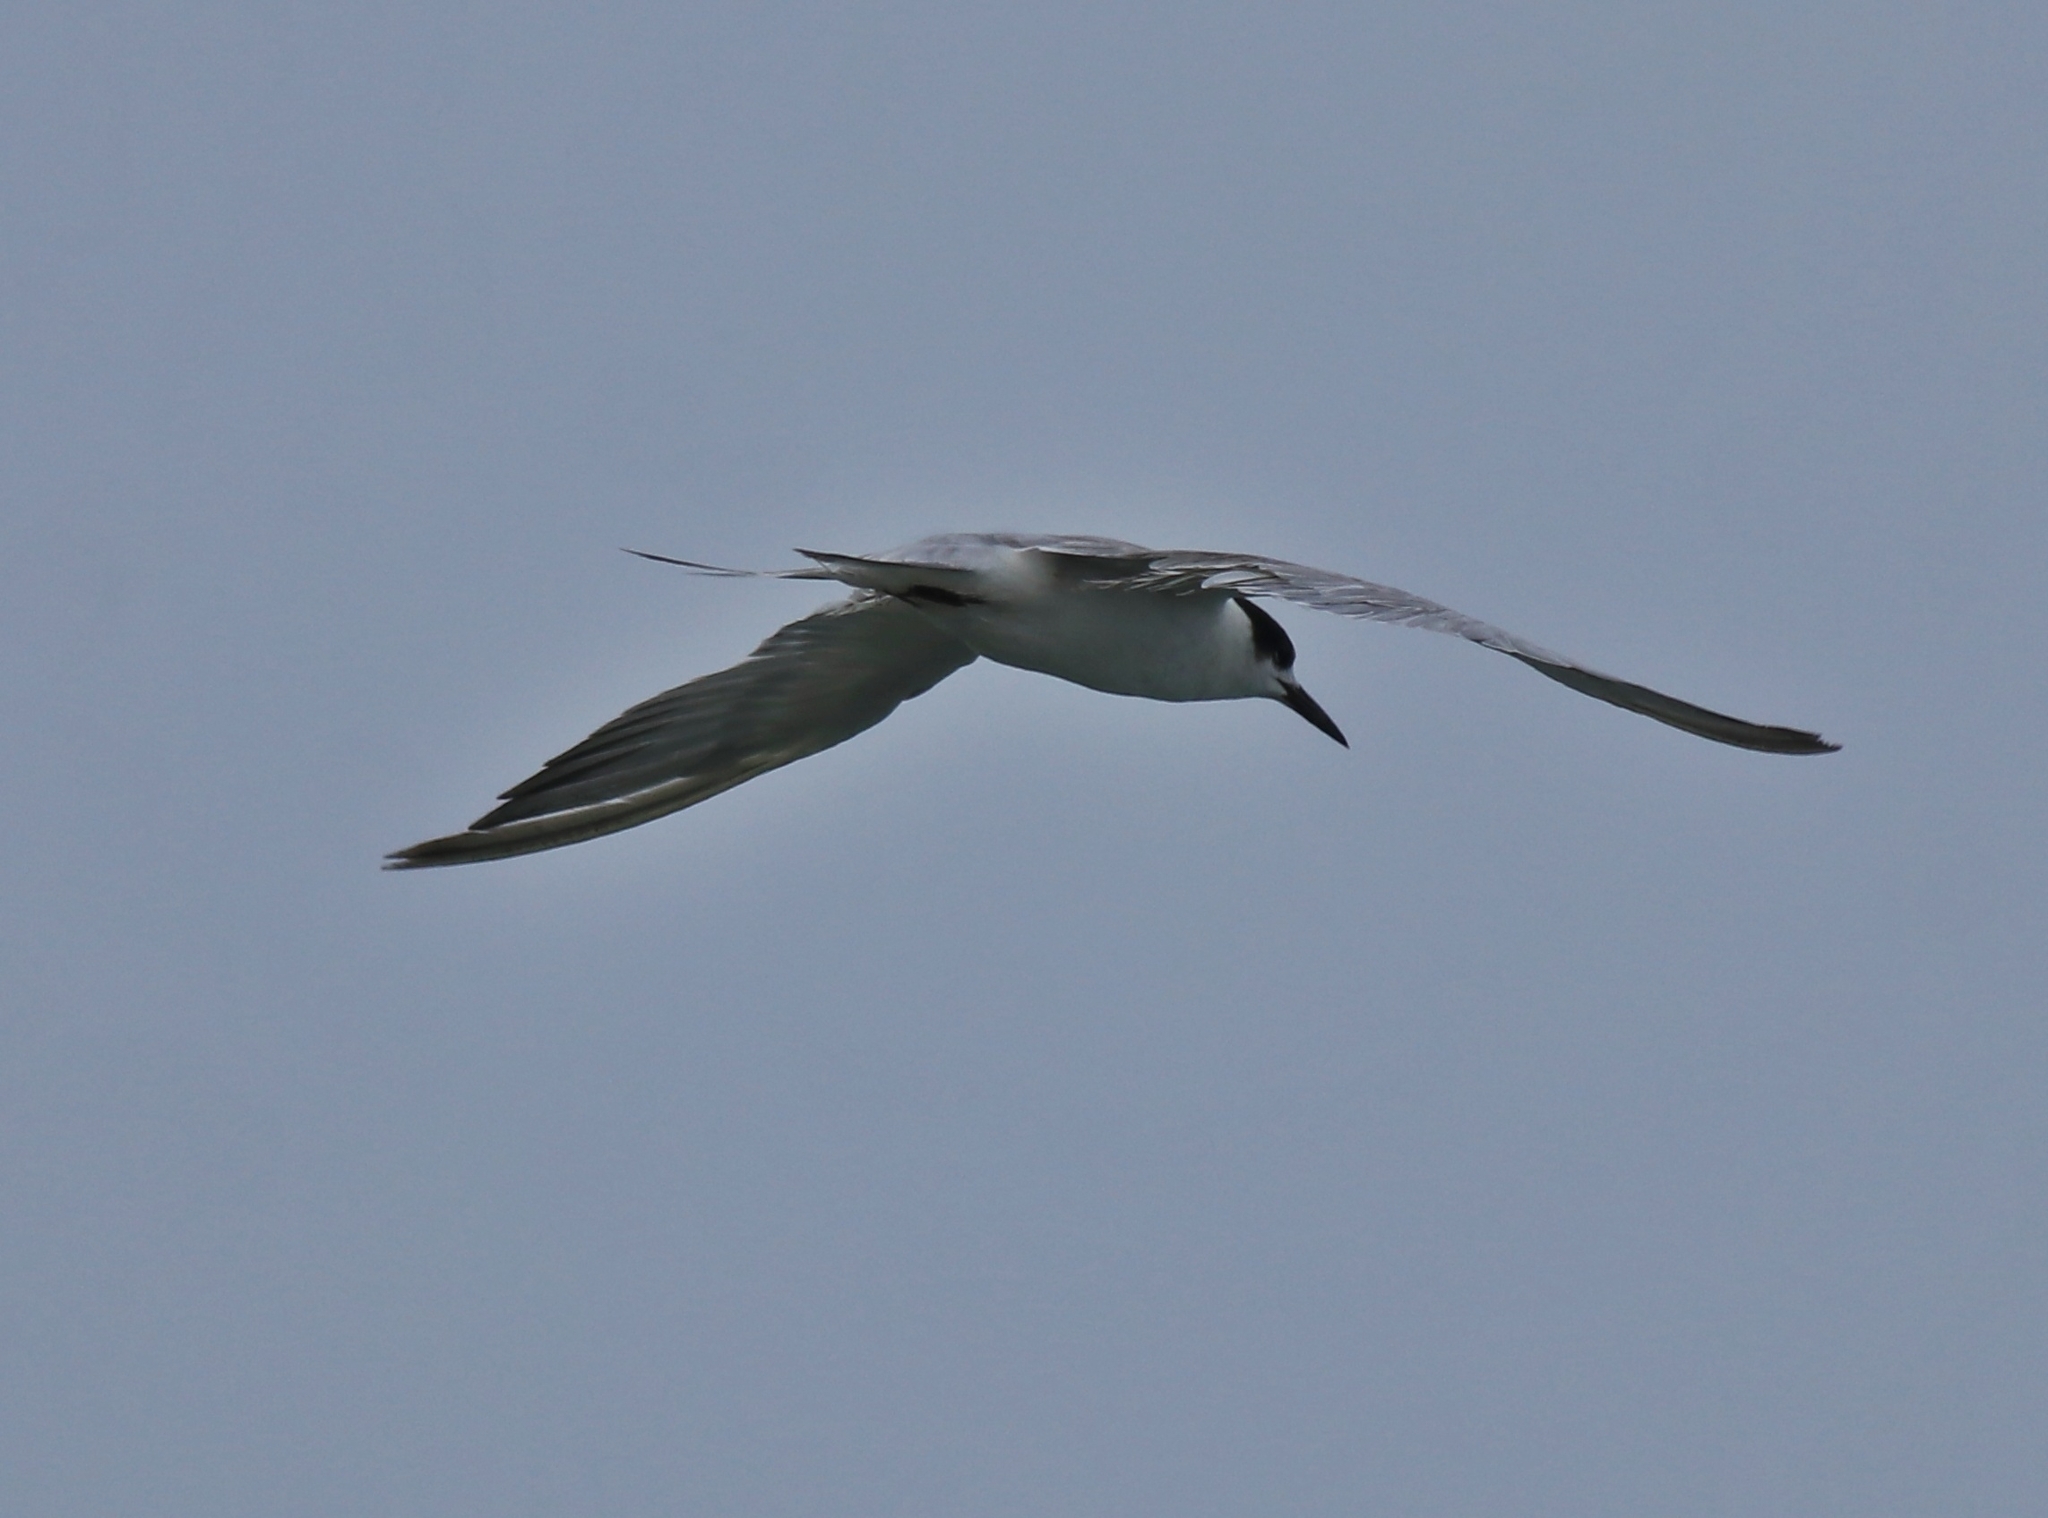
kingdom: Animalia
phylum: Chordata
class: Aves
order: Charadriiformes
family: Laridae
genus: Sterna
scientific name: Sterna hirundo
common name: Common tern
